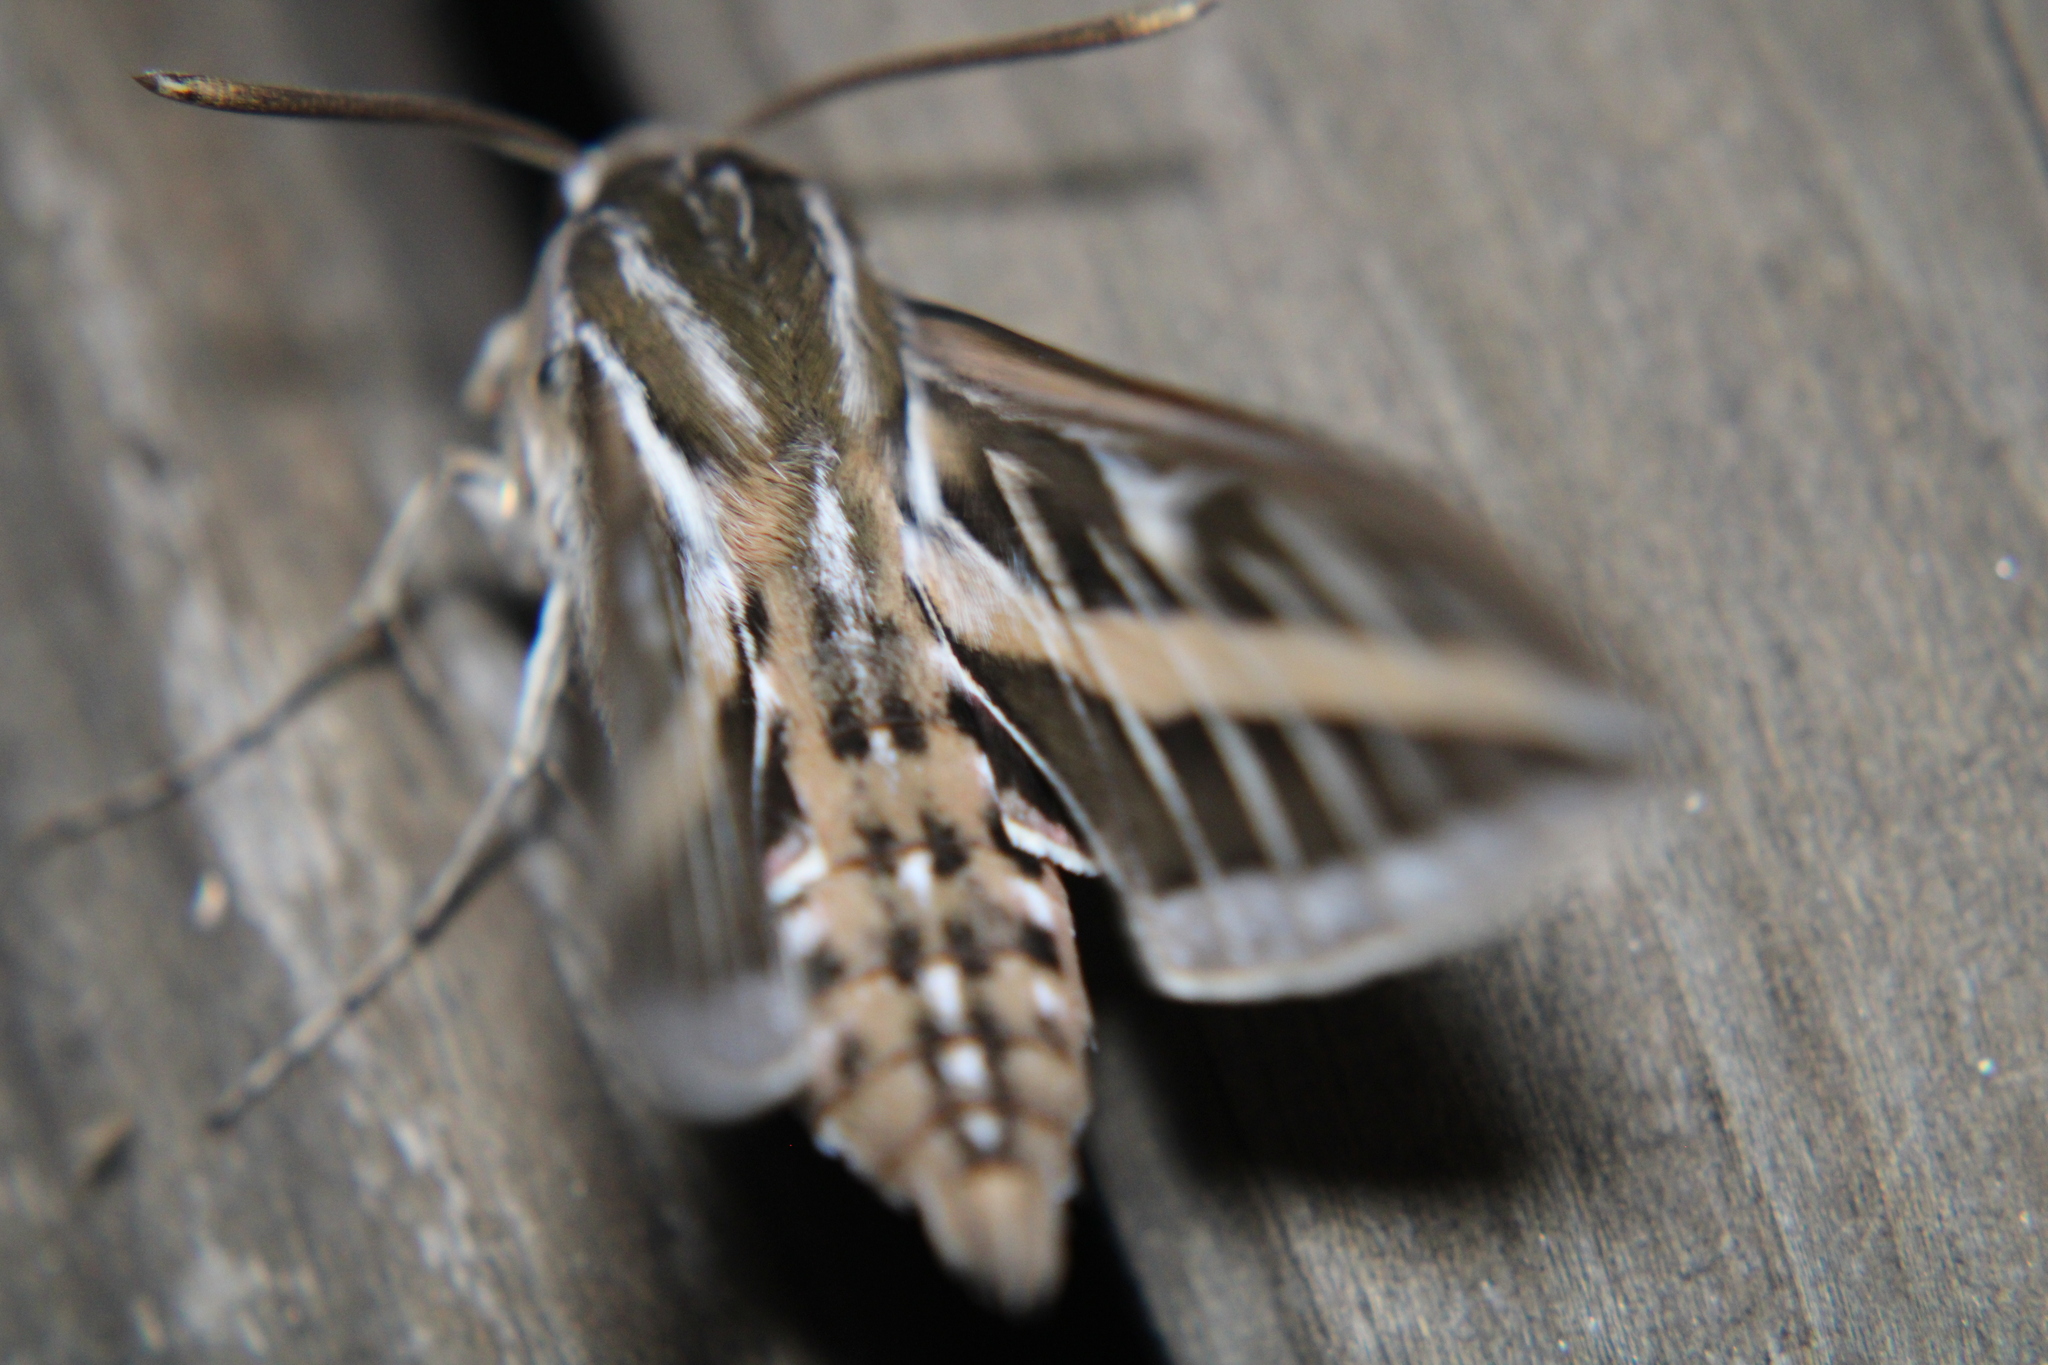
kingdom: Animalia
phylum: Arthropoda
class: Insecta
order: Lepidoptera
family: Sphingidae
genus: Hyles
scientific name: Hyles lineata
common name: White-lined sphinx
